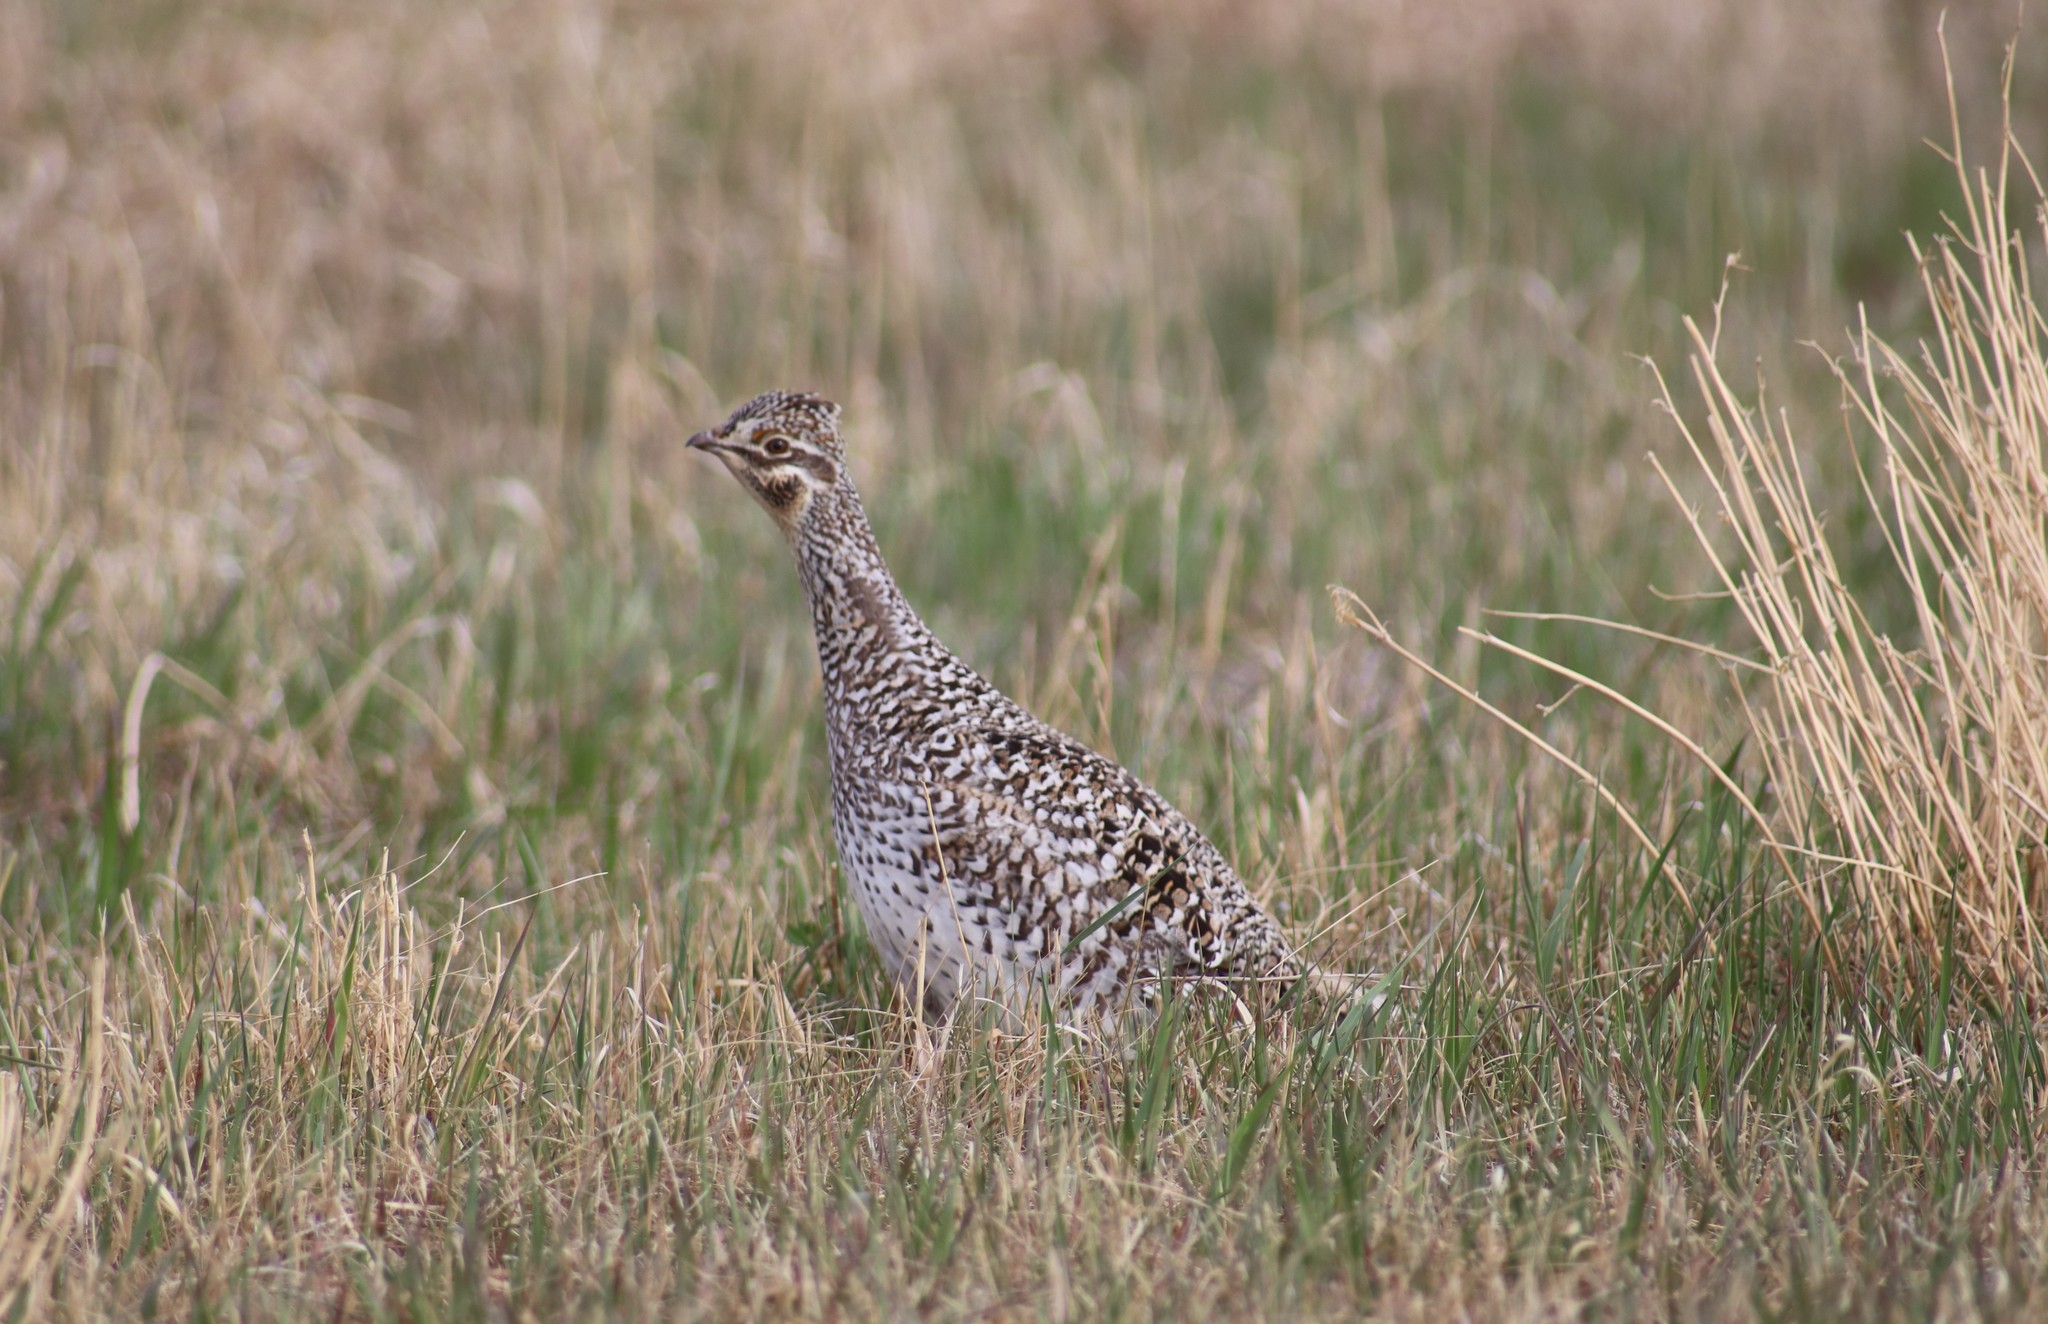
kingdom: Animalia
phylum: Chordata
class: Aves
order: Galliformes
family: Phasianidae
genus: Tympanuchus
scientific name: Tympanuchus phasianellus
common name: Sharp-tailed grouse
